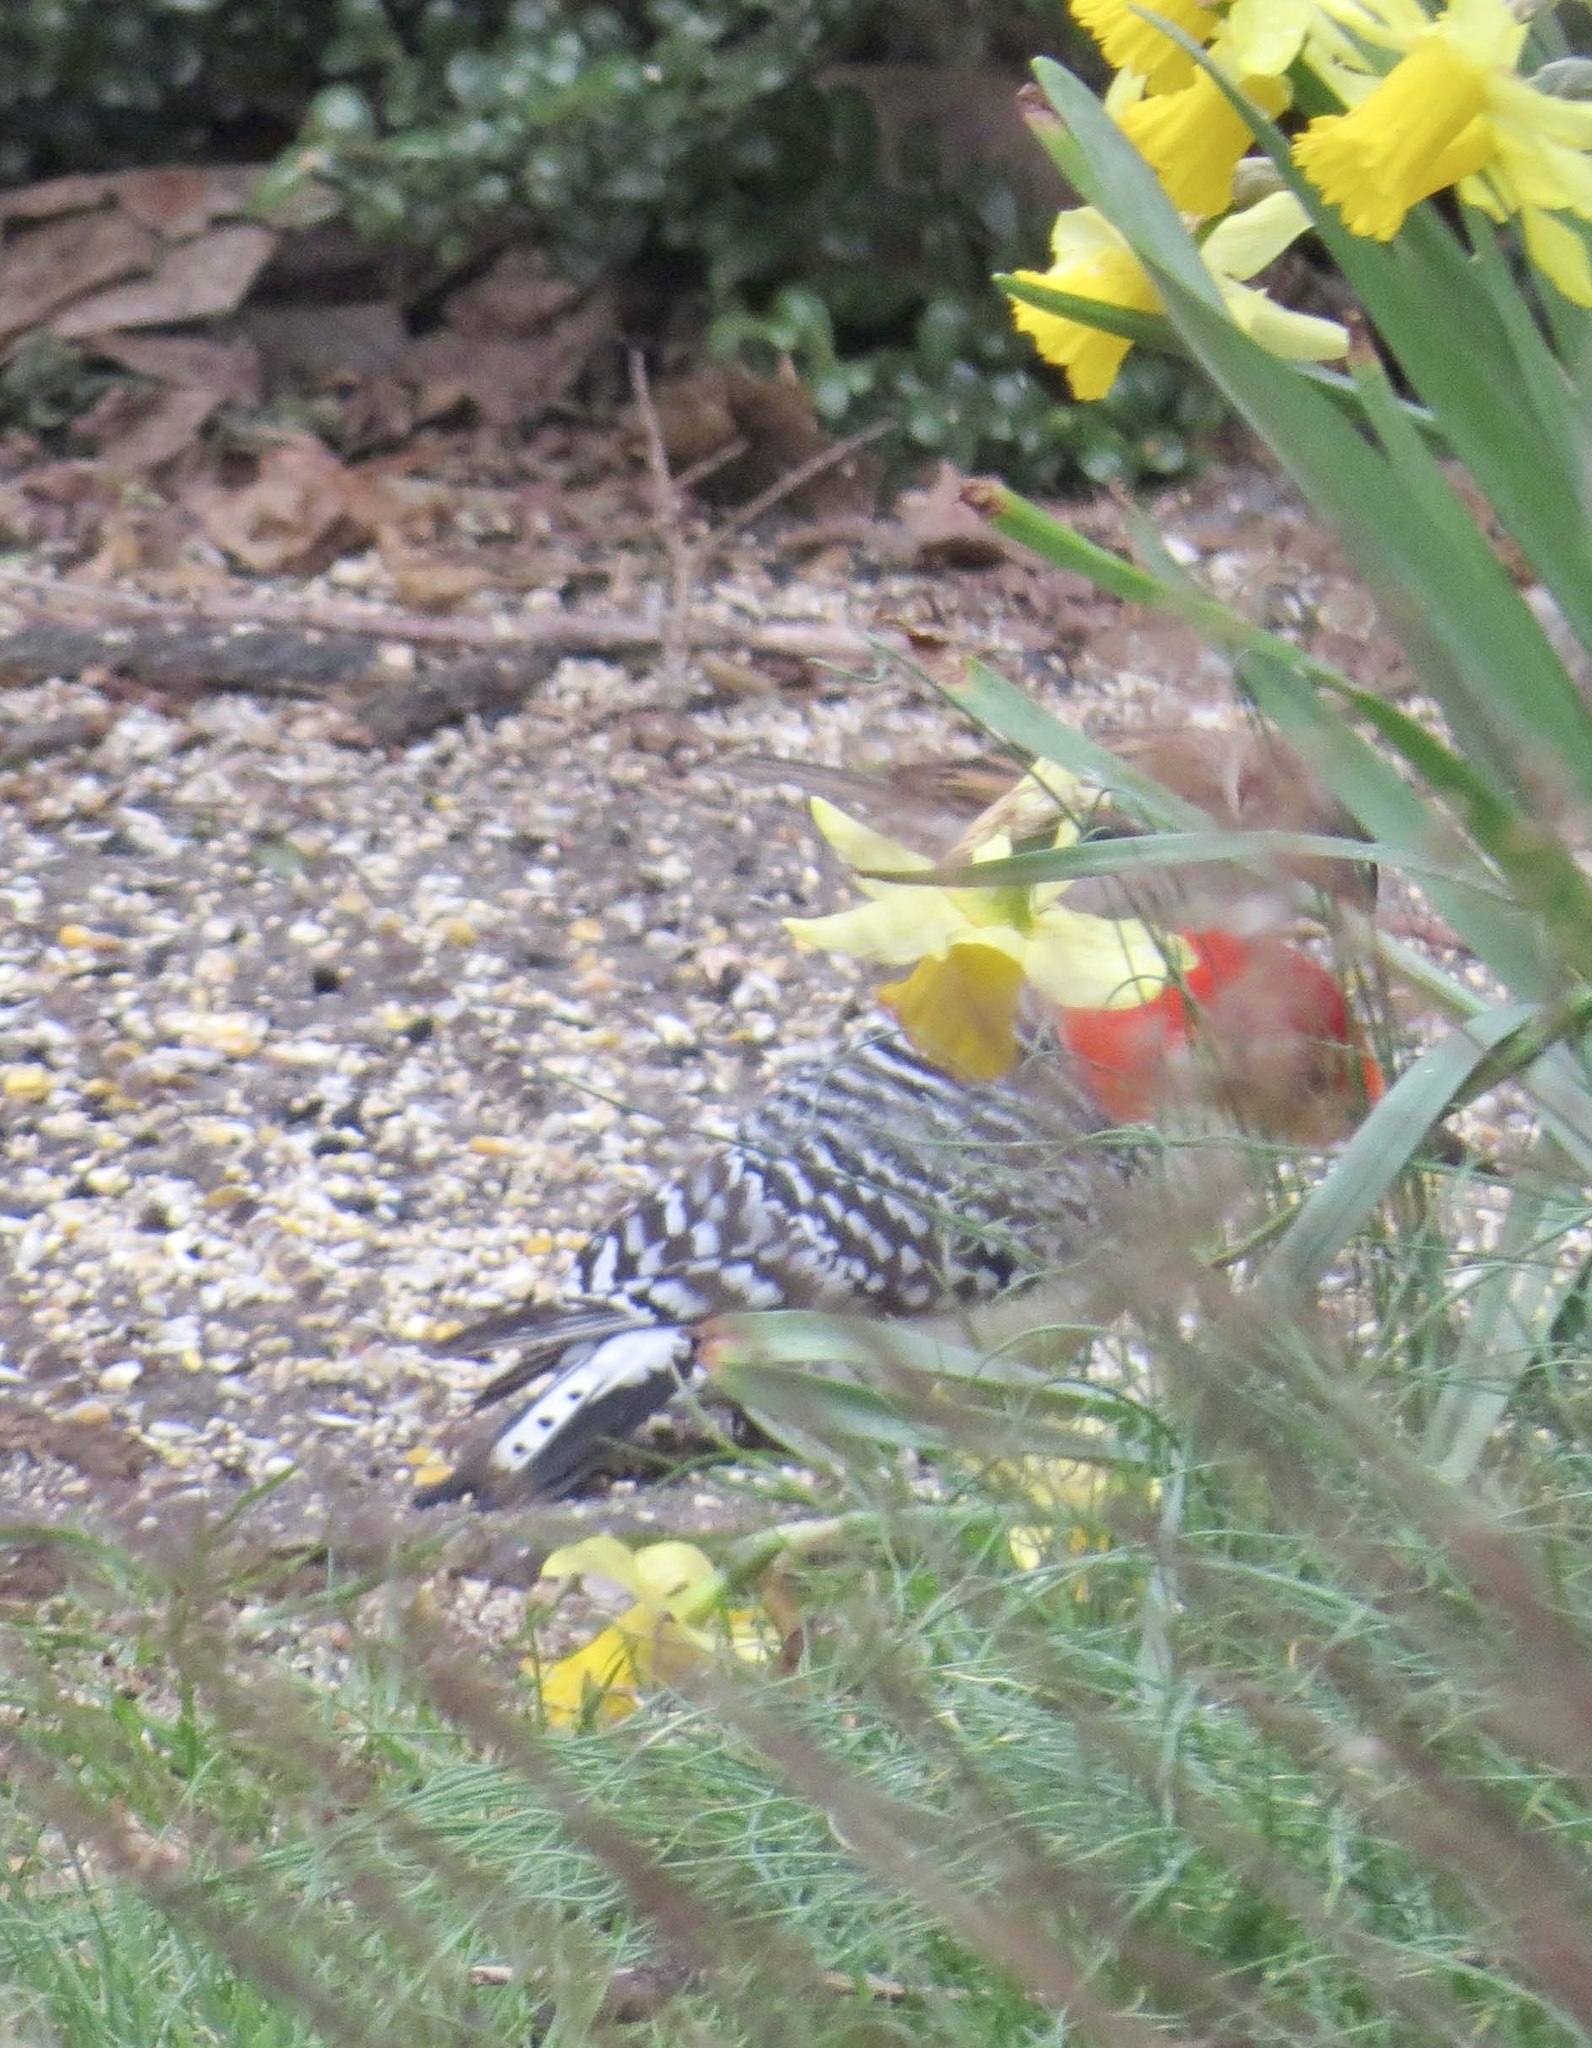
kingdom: Animalia
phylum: Chordata
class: Aves
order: Piciformes
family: Picidae
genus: Melanerpes
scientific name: Melanerpes carolinus
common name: Red-bellied woodpecker
